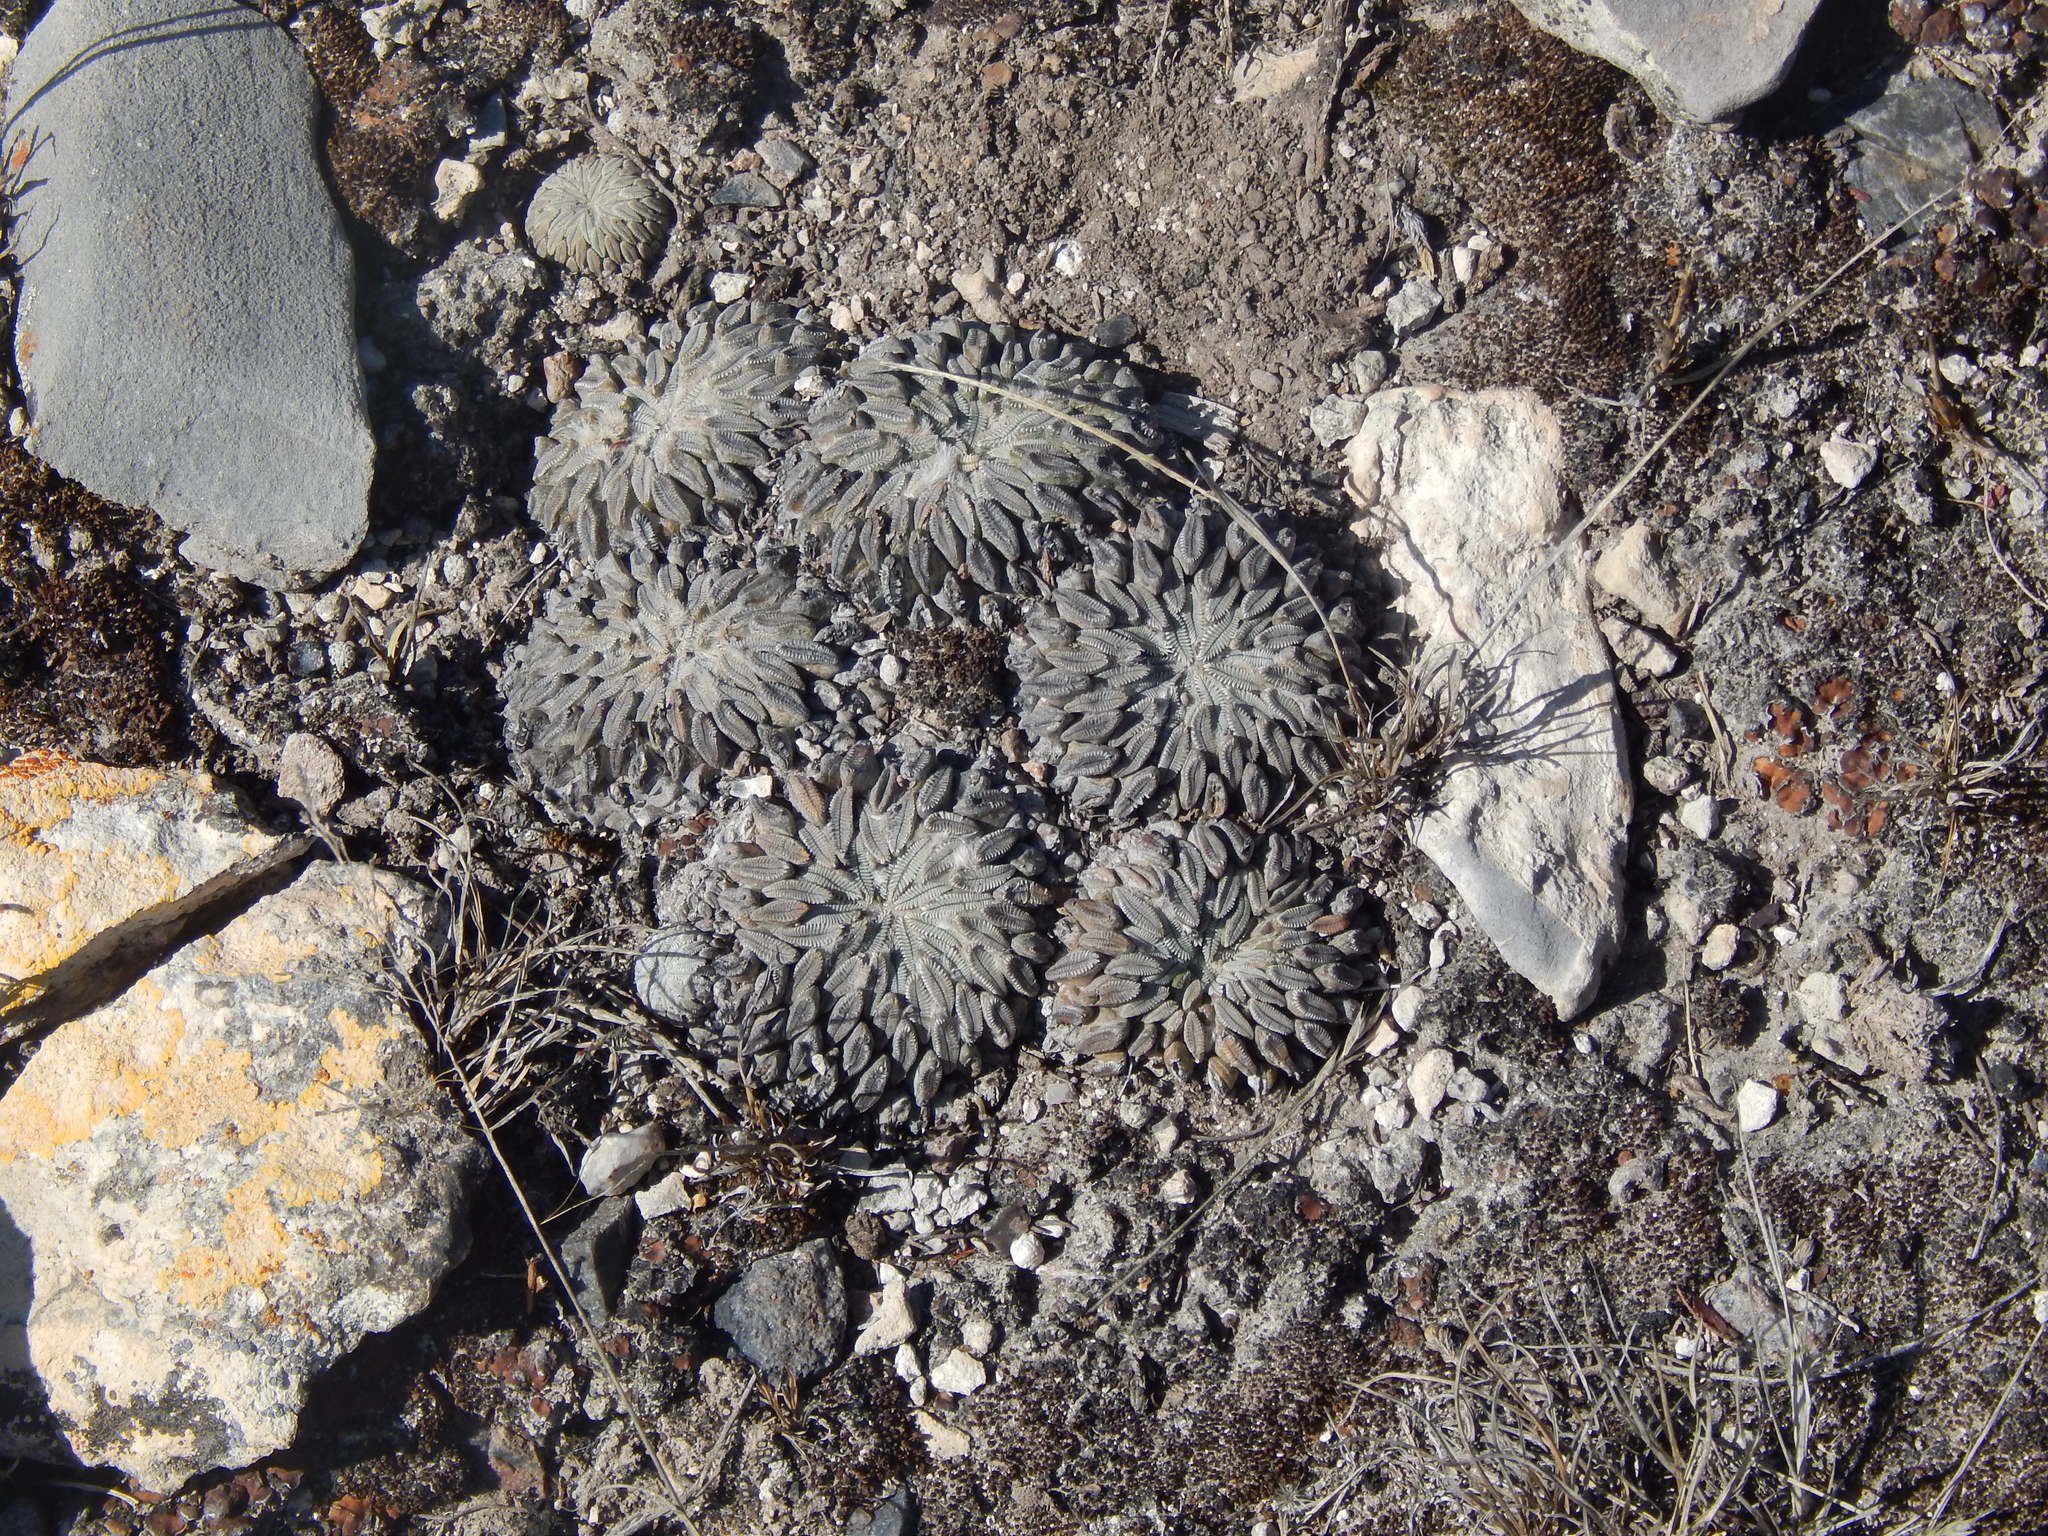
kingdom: Plantae
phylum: Tracheophyta
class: Magnoliopsida
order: Caryophyllales
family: Cactaceae
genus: Pelecyphora
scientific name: Pelecyphora aselliformis
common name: Woodlouse cactus
